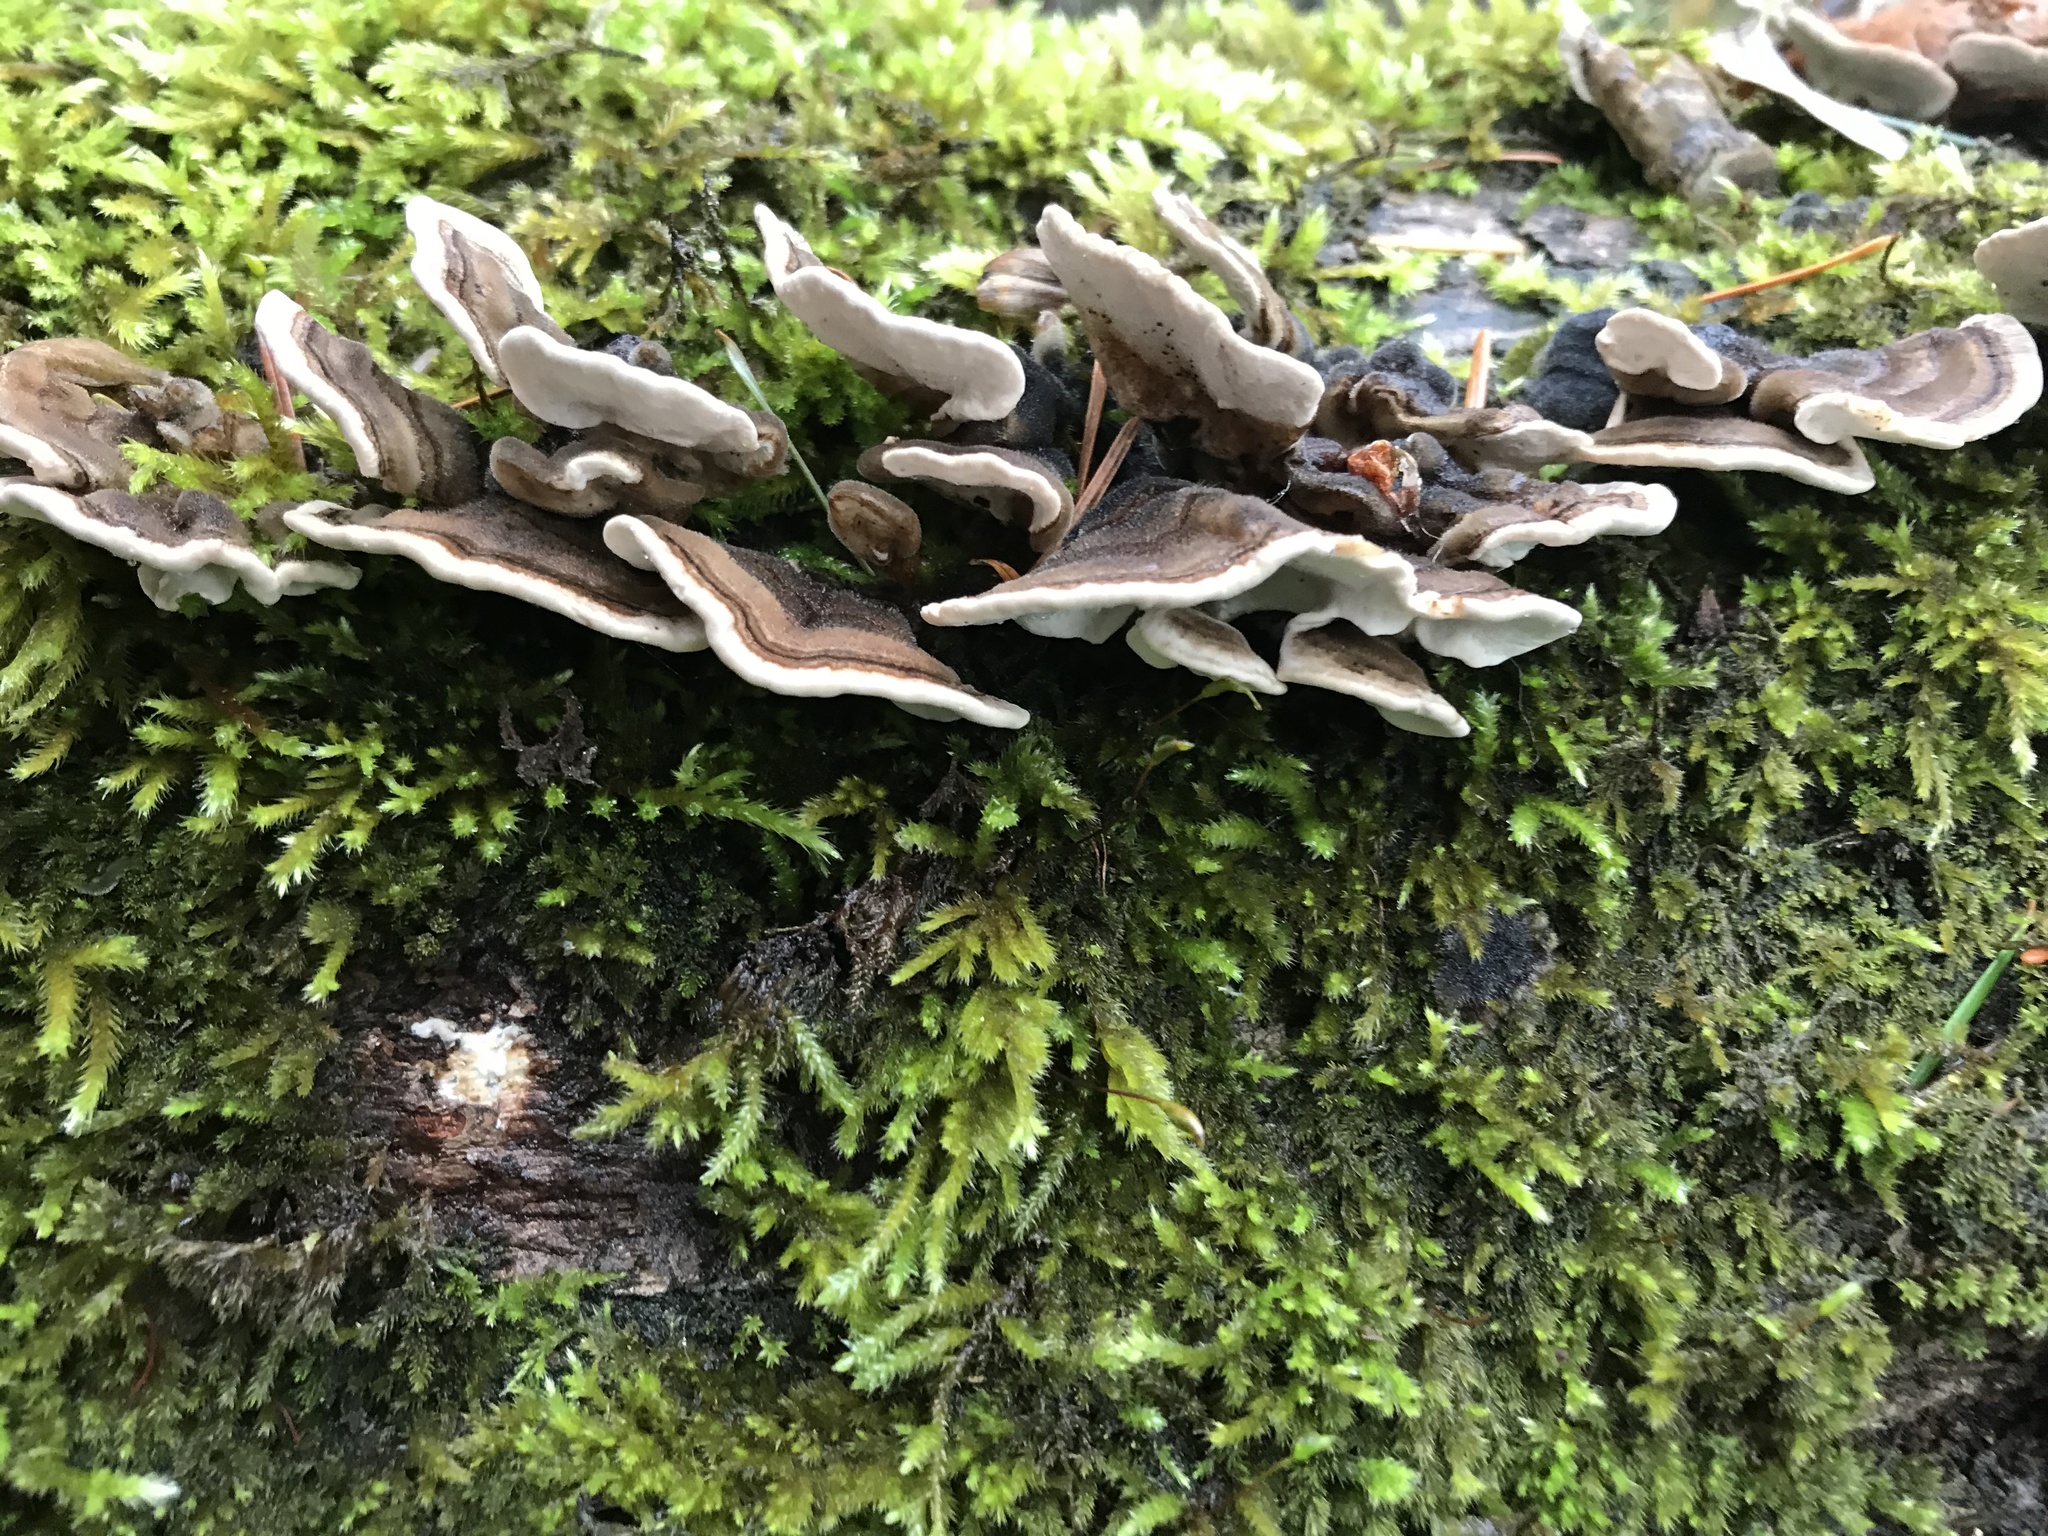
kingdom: Fungi
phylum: Basidiomycota
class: Agaricomycetes
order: Polyporales
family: Polyporaceae
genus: Trametes
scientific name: Trametes versicolor
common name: Turkeytail
